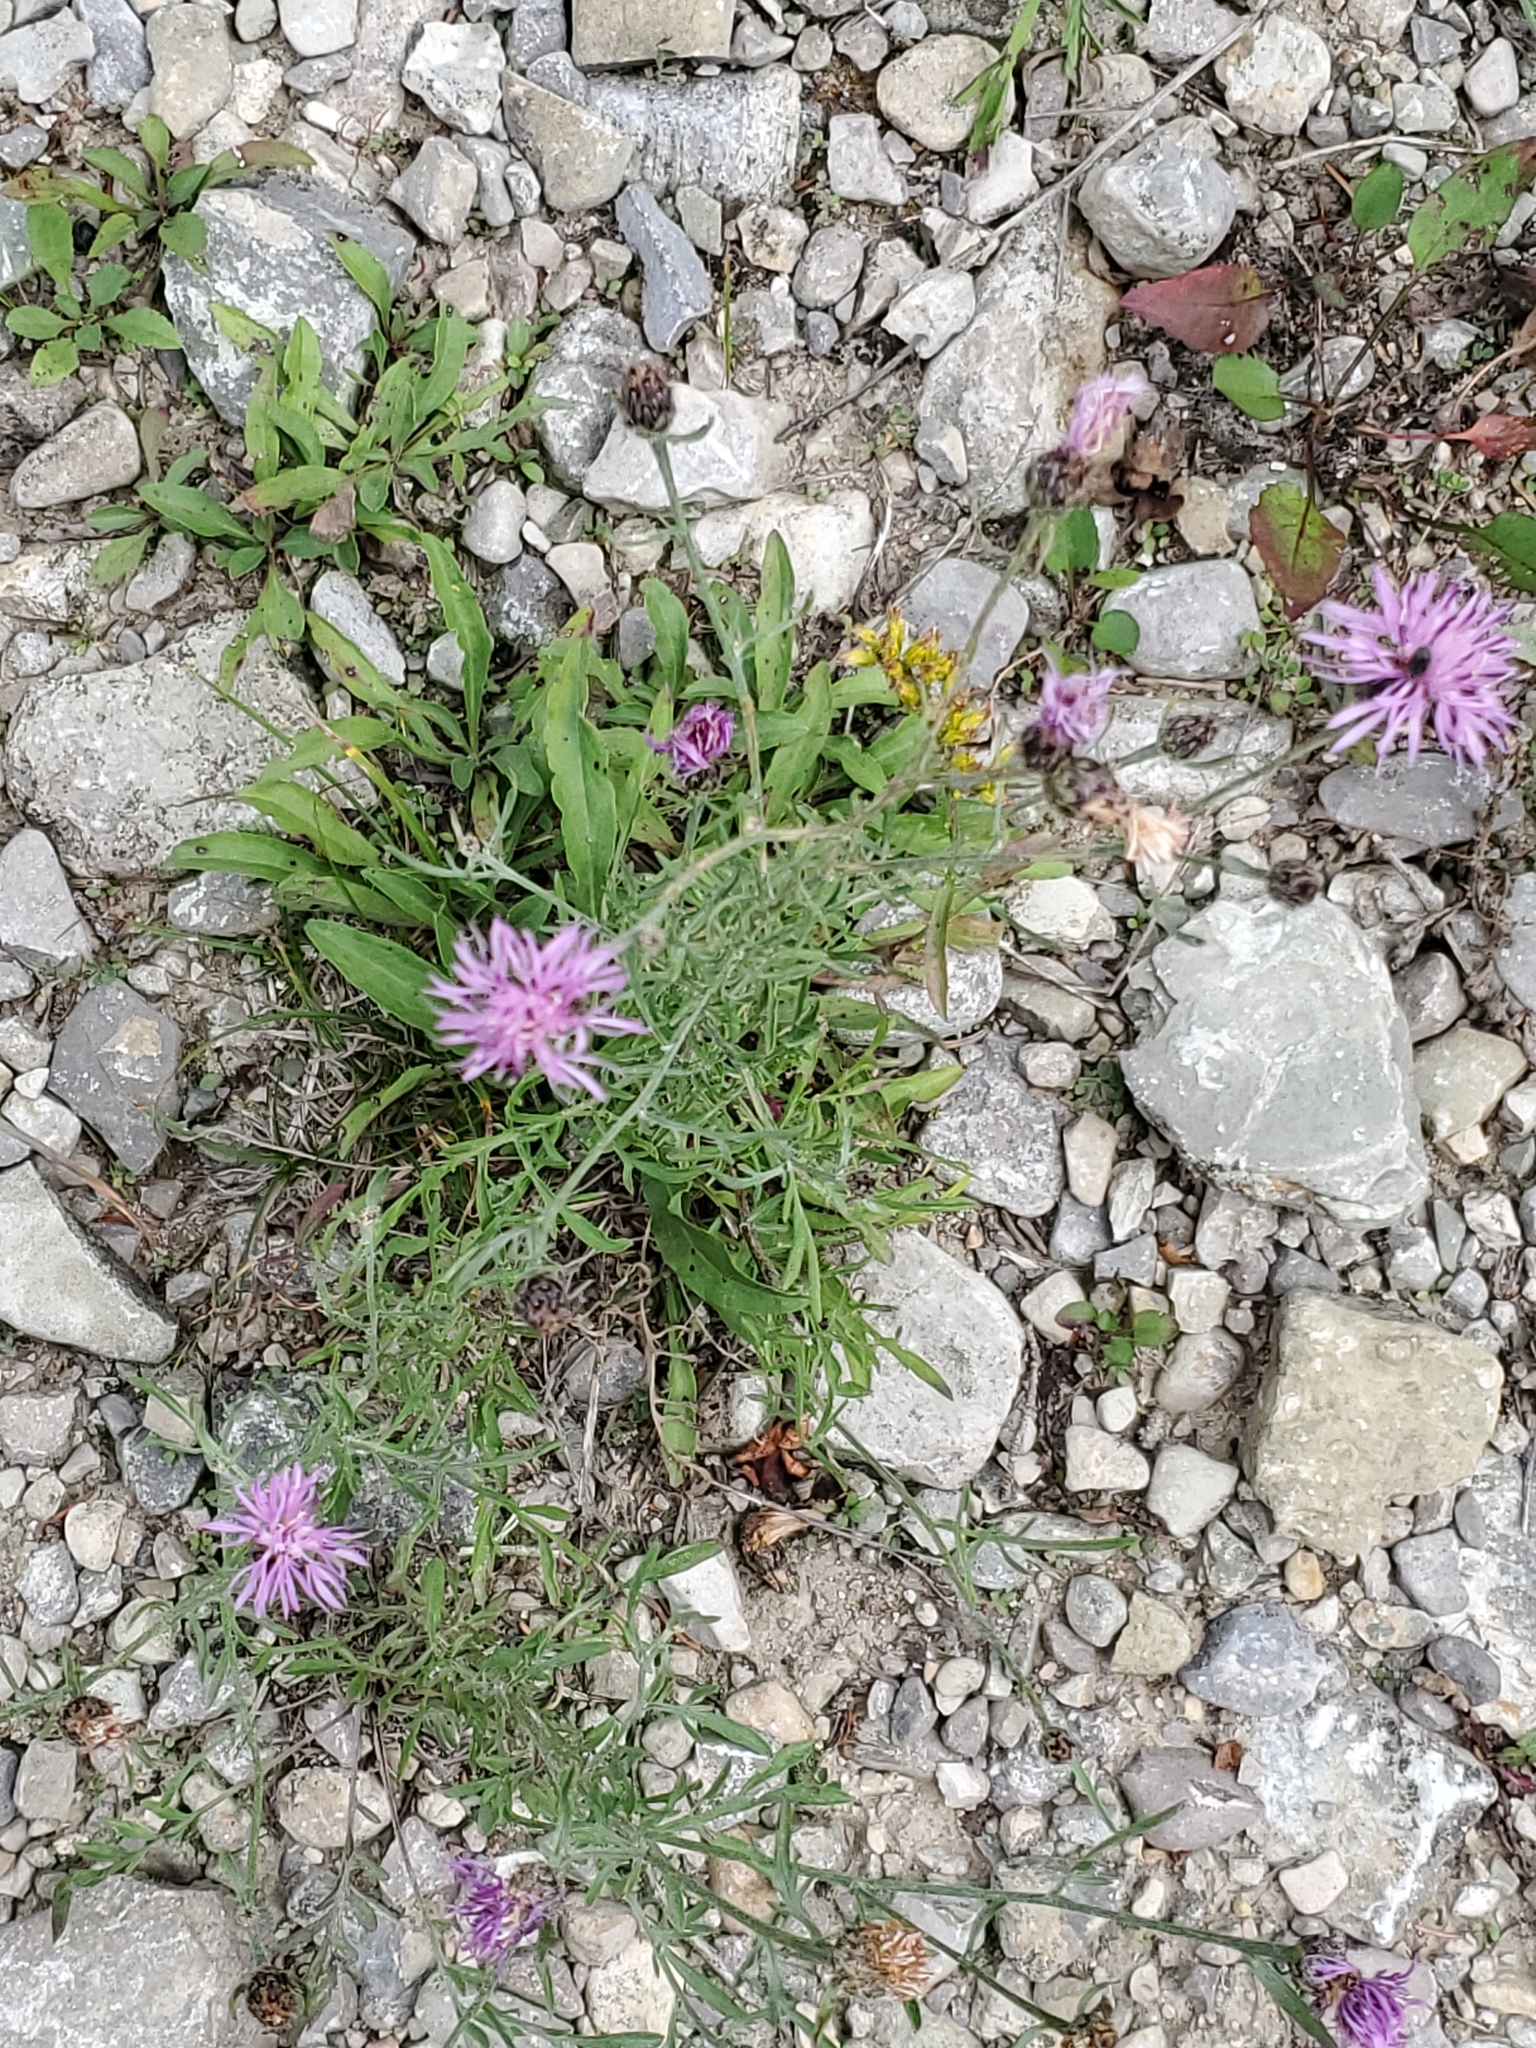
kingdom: Plantae
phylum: Tracheophyta
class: Magnoliopsida
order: Asterales
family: Asteraceae
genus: Centaurea
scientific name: Centaurea stoebe
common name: Spotted knapweed
